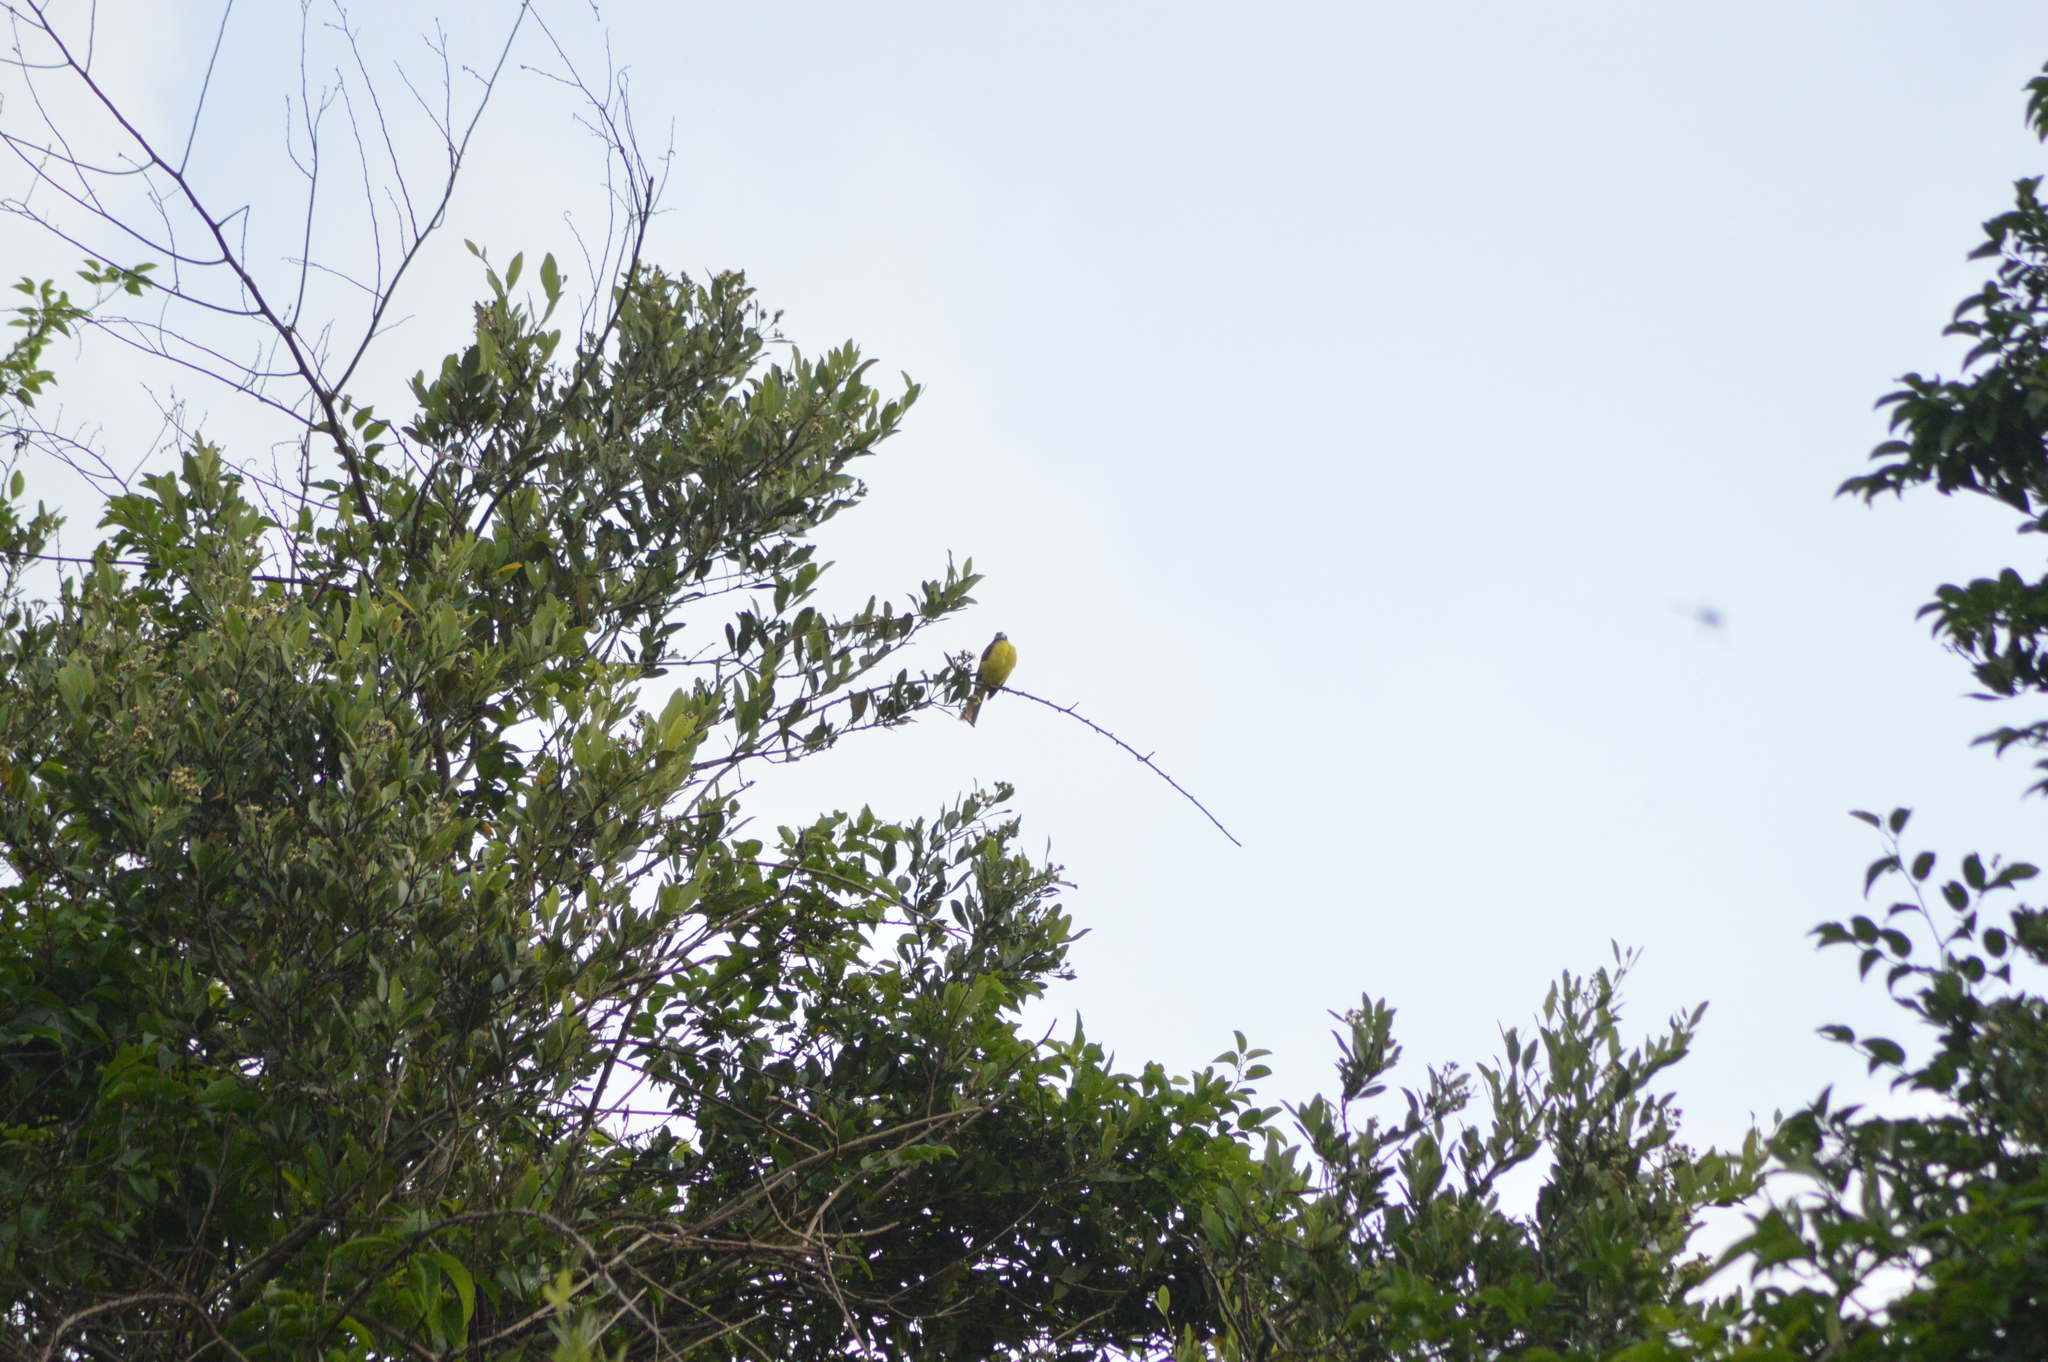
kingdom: Animalia
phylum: Chordata
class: Aves
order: Passeriformes
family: Tyrannidae
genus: Myiozetetes
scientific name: Myiozetetes similis
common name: Social flycatcher
